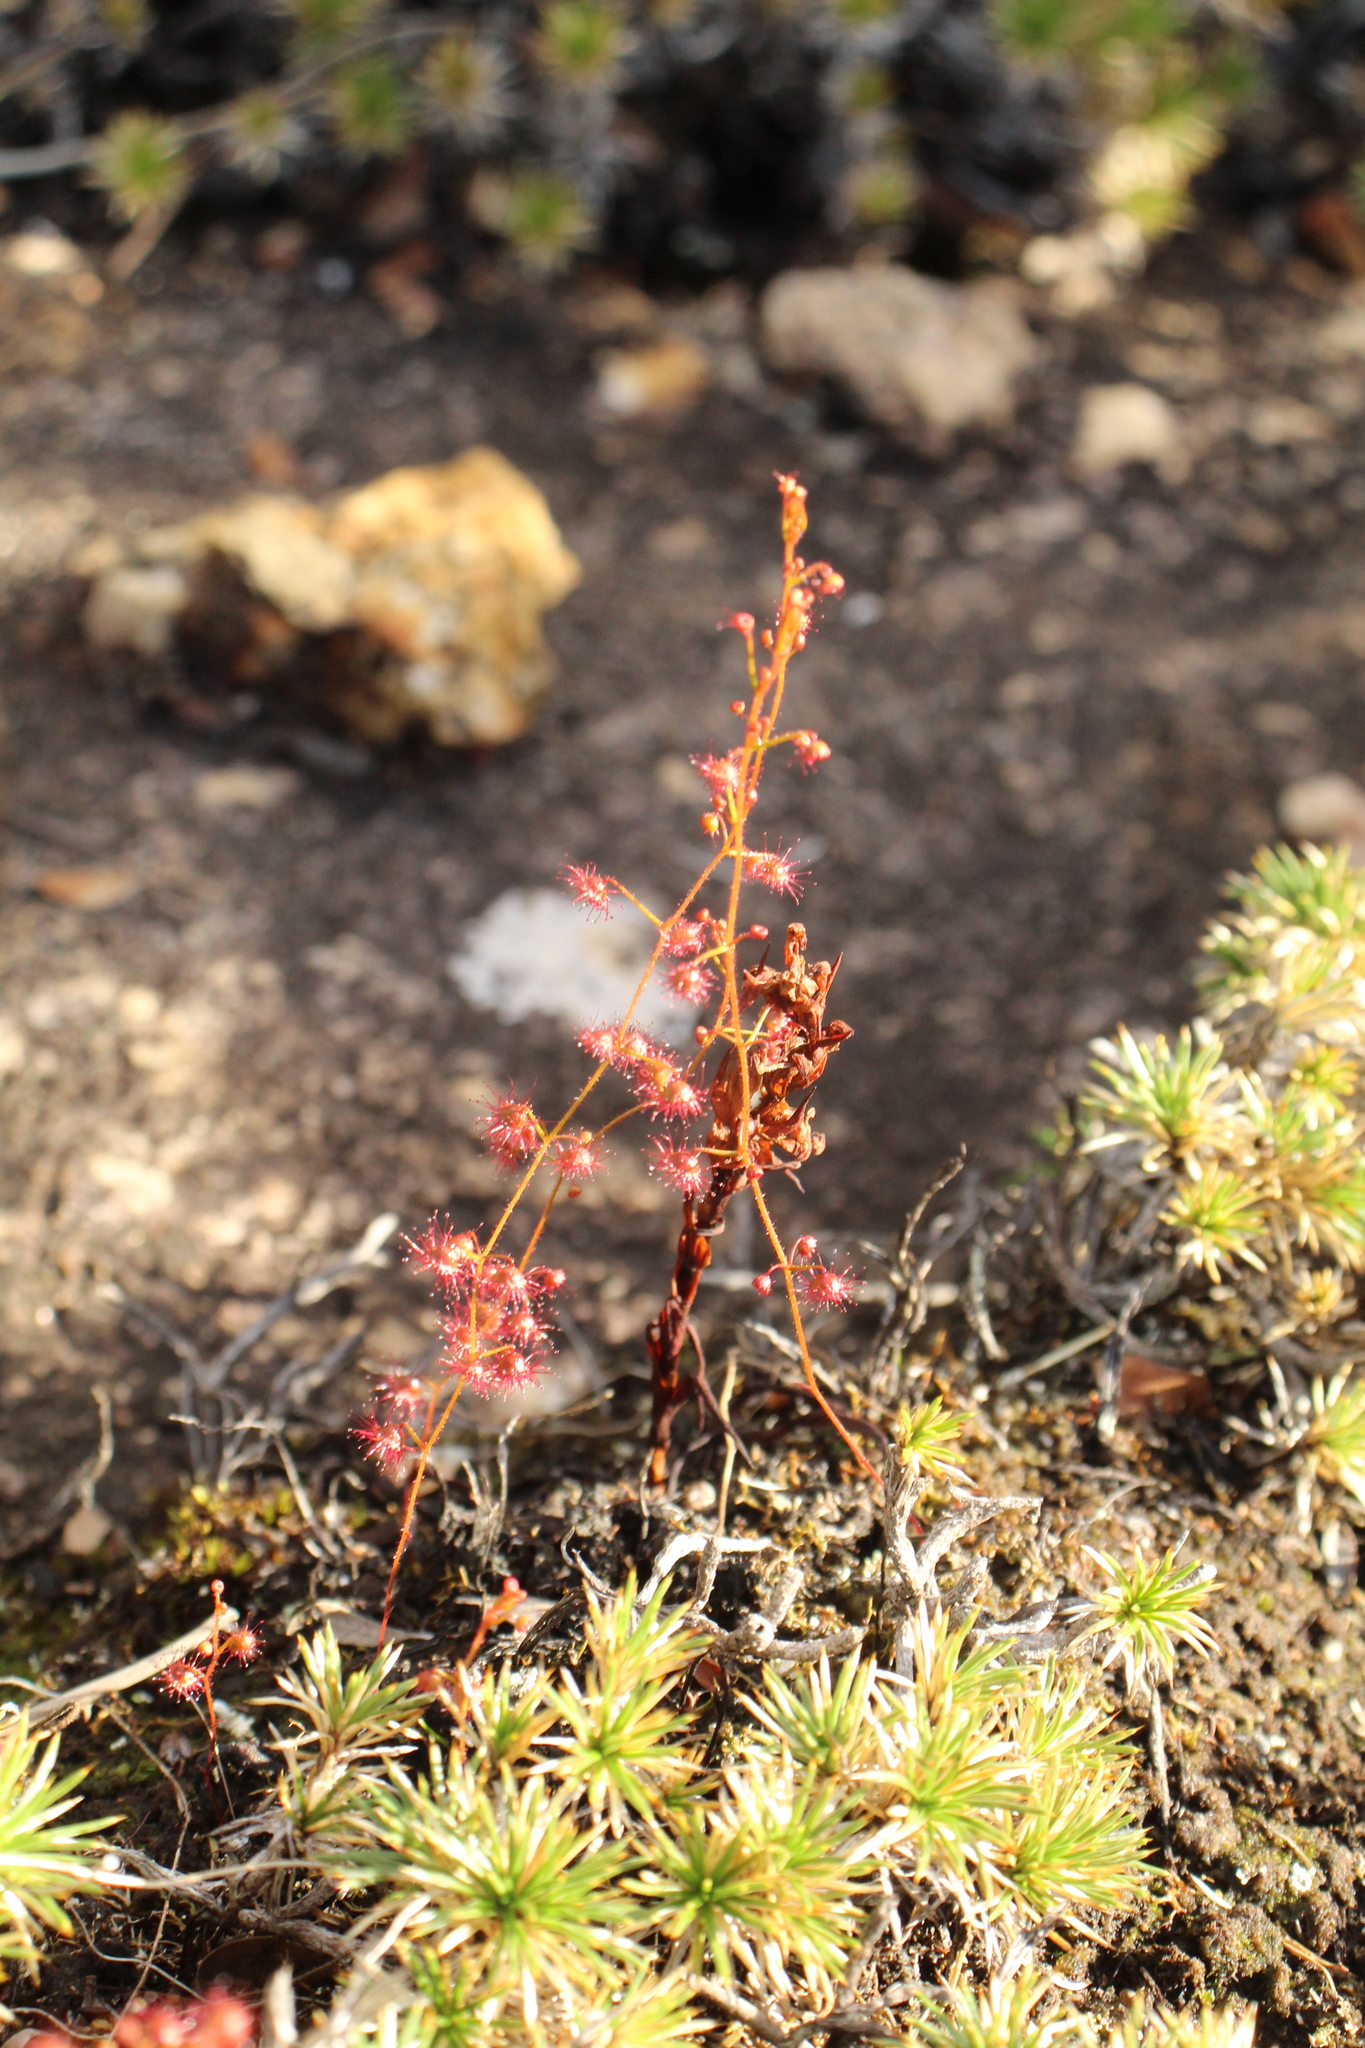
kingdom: Plantae
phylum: Tracheophyta
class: Magnoliopsida
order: Caryophyllales
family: Droseraceae
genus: Drosera
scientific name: Drosera macrantha
